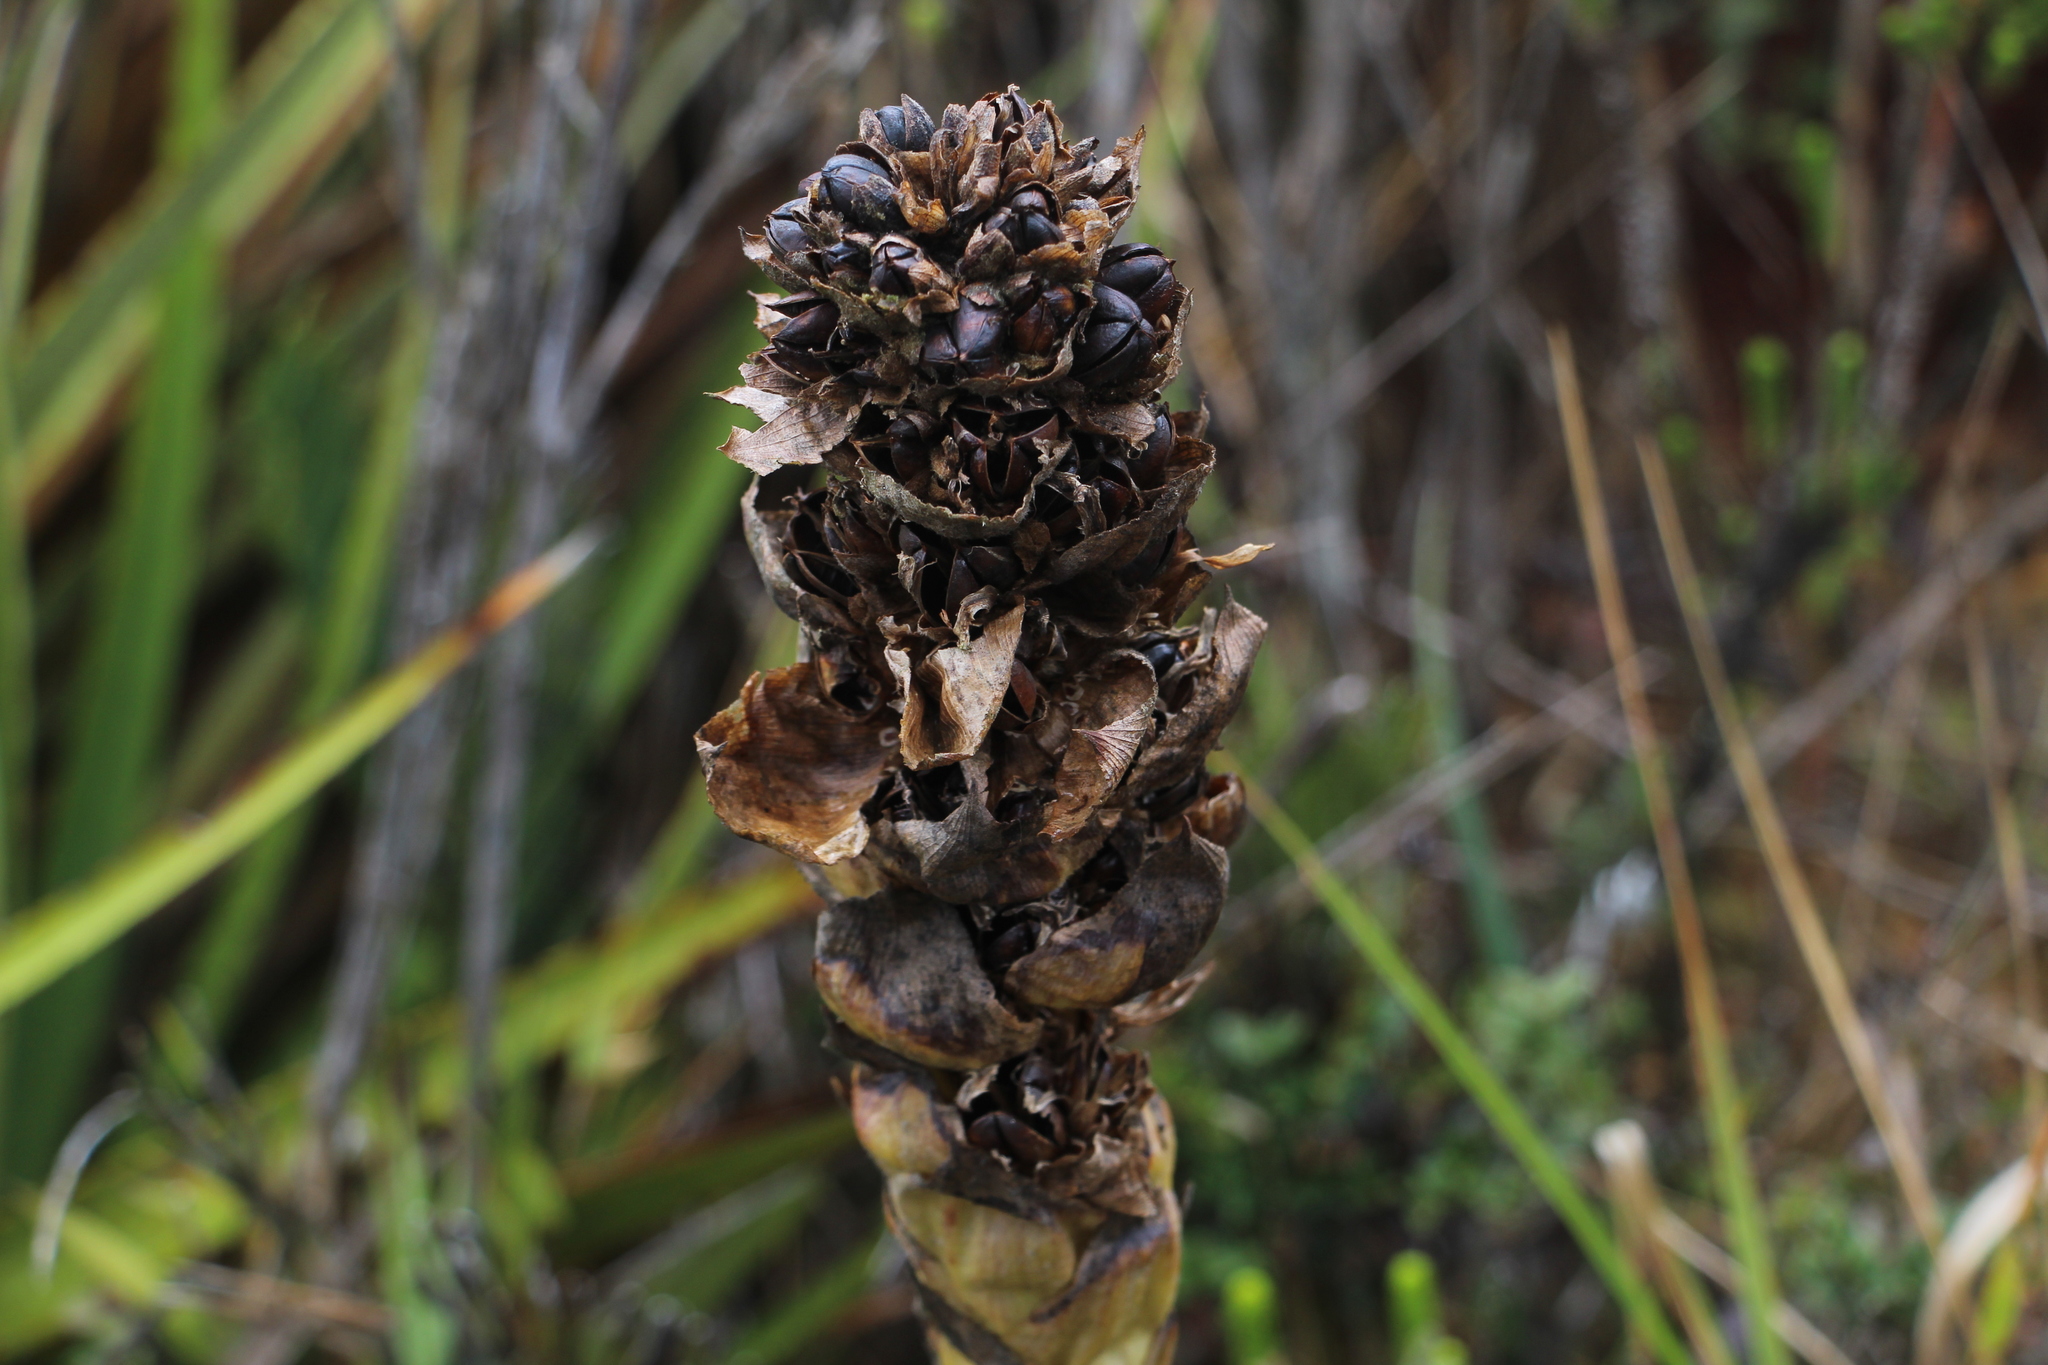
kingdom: Plantae
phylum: Tracheophyta
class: Liliopsida
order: Poales
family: Bromeliaceae
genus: Puya
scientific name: Puya cryptantha
